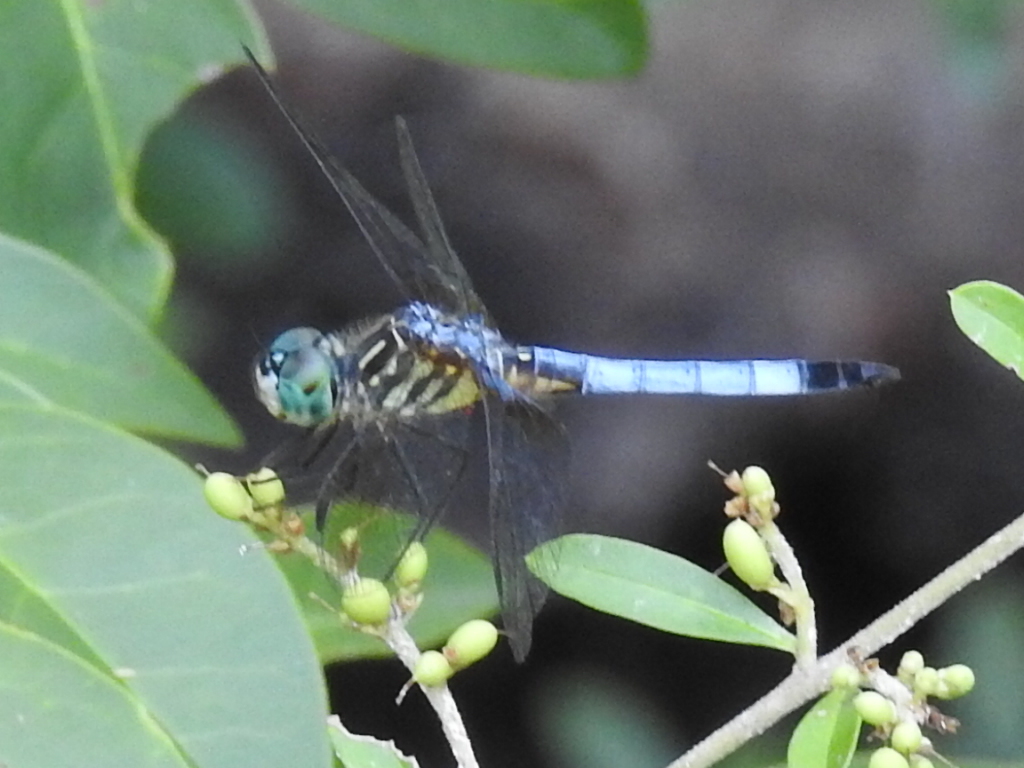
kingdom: Animalia
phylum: Arthropoda
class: Insecta
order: Odonata
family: Libellulidae
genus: Pachydiplax
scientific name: Pachydiplax longipennis
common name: Blue dasher
